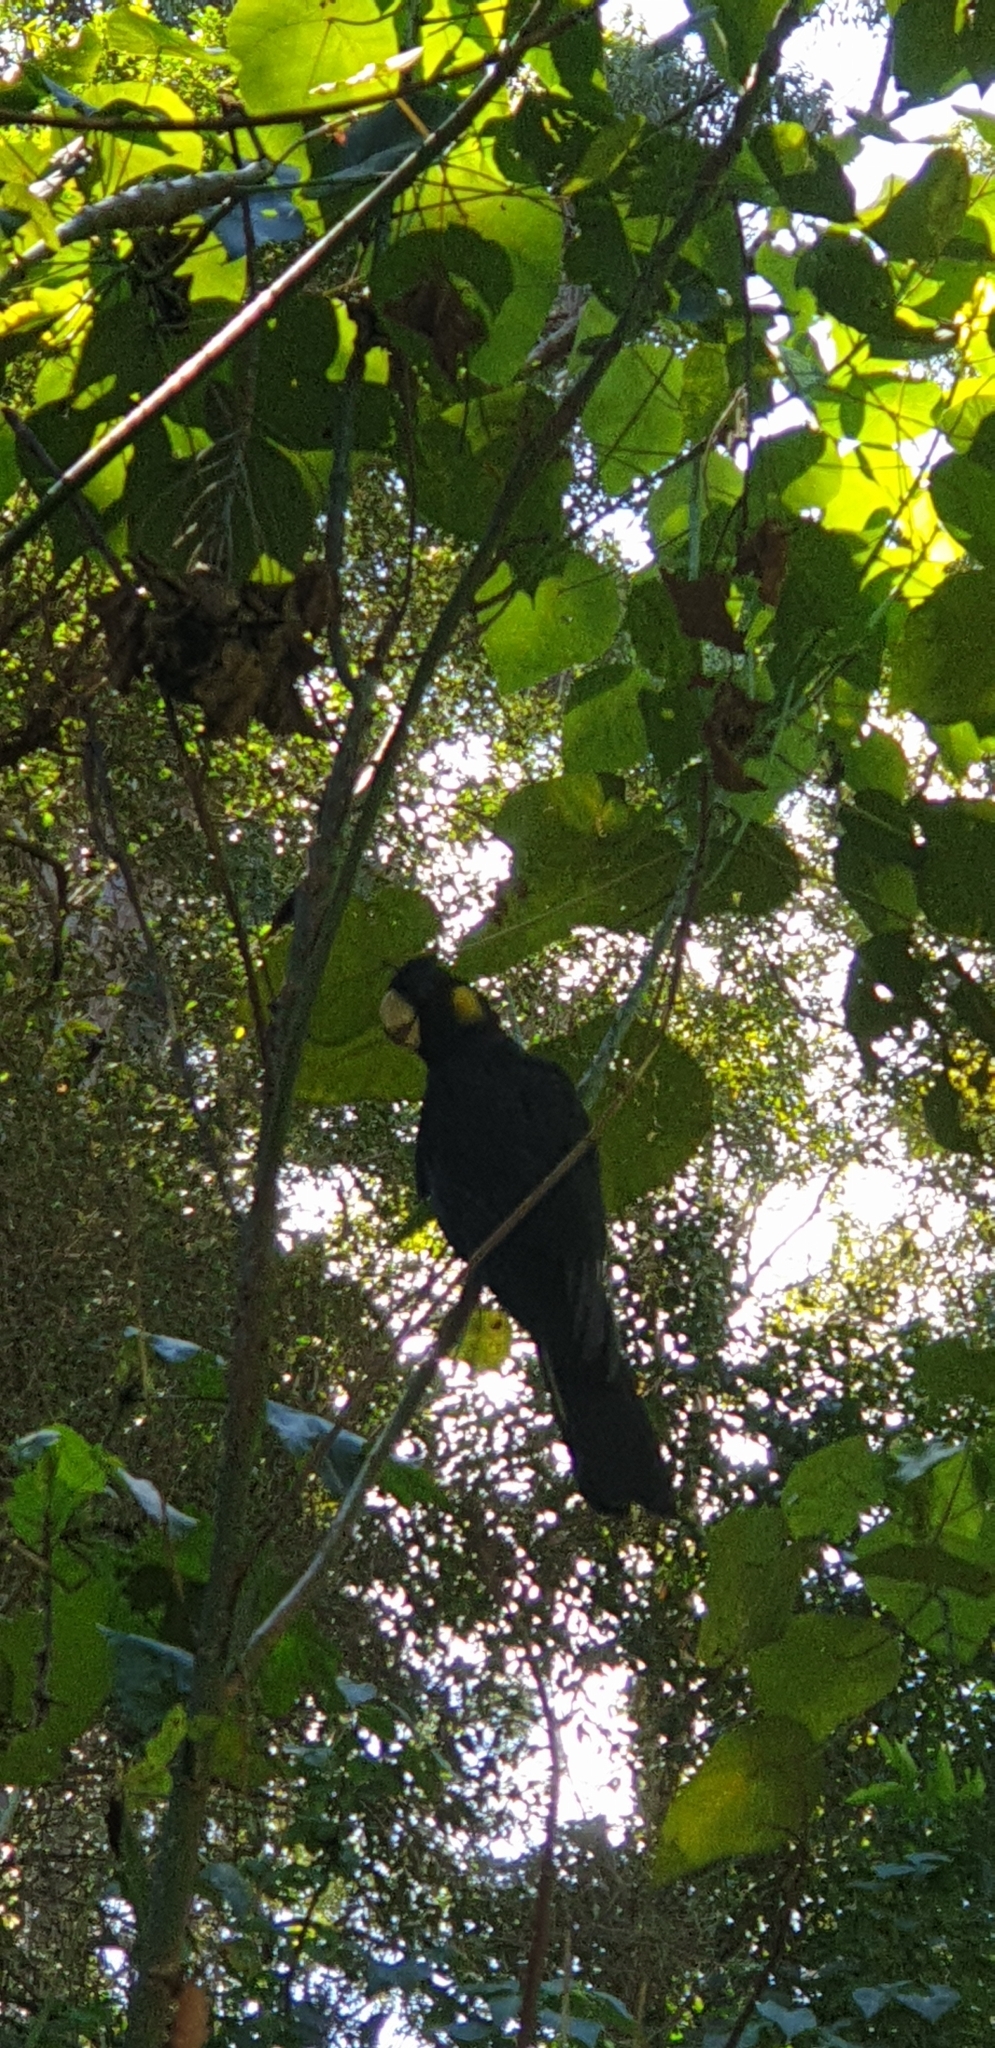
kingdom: Animalia
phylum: Chordata
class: Aves
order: Psittaciformes
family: Cacatuidae
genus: Zanda
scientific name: Zanda funerea
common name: Yellow-tailed black-cockatoo
